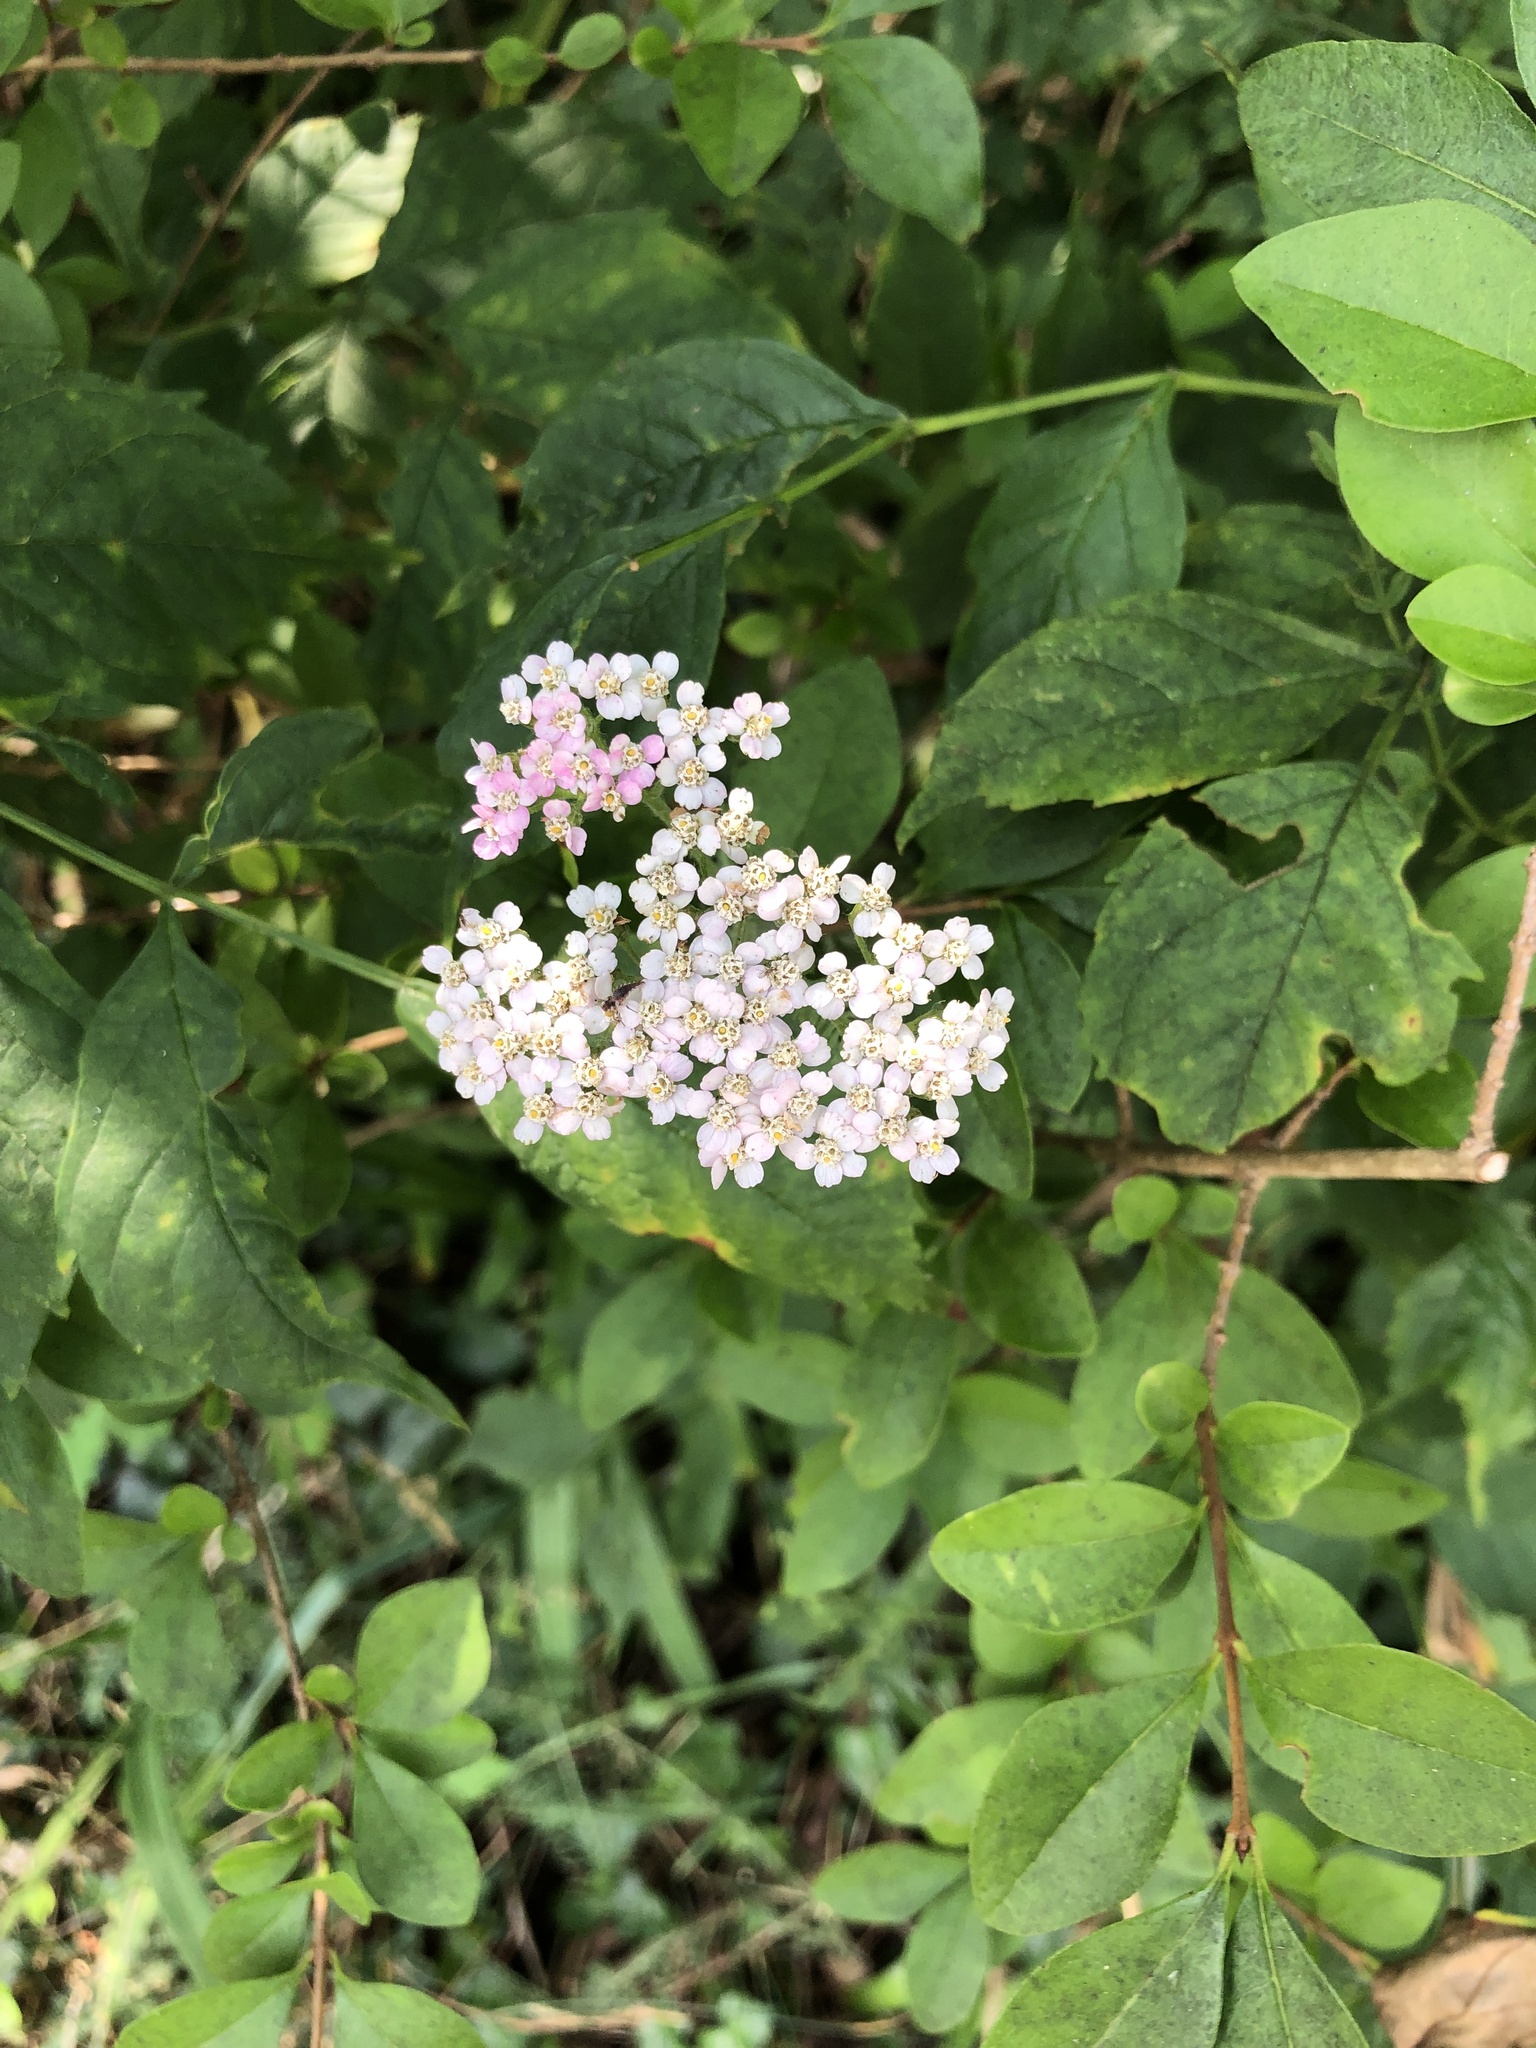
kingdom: Plantae
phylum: Tracheophyta
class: Magnoliopsida
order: Asterales
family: Asteraceae
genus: Achillea
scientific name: Achillea millefolium
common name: Yarrow
